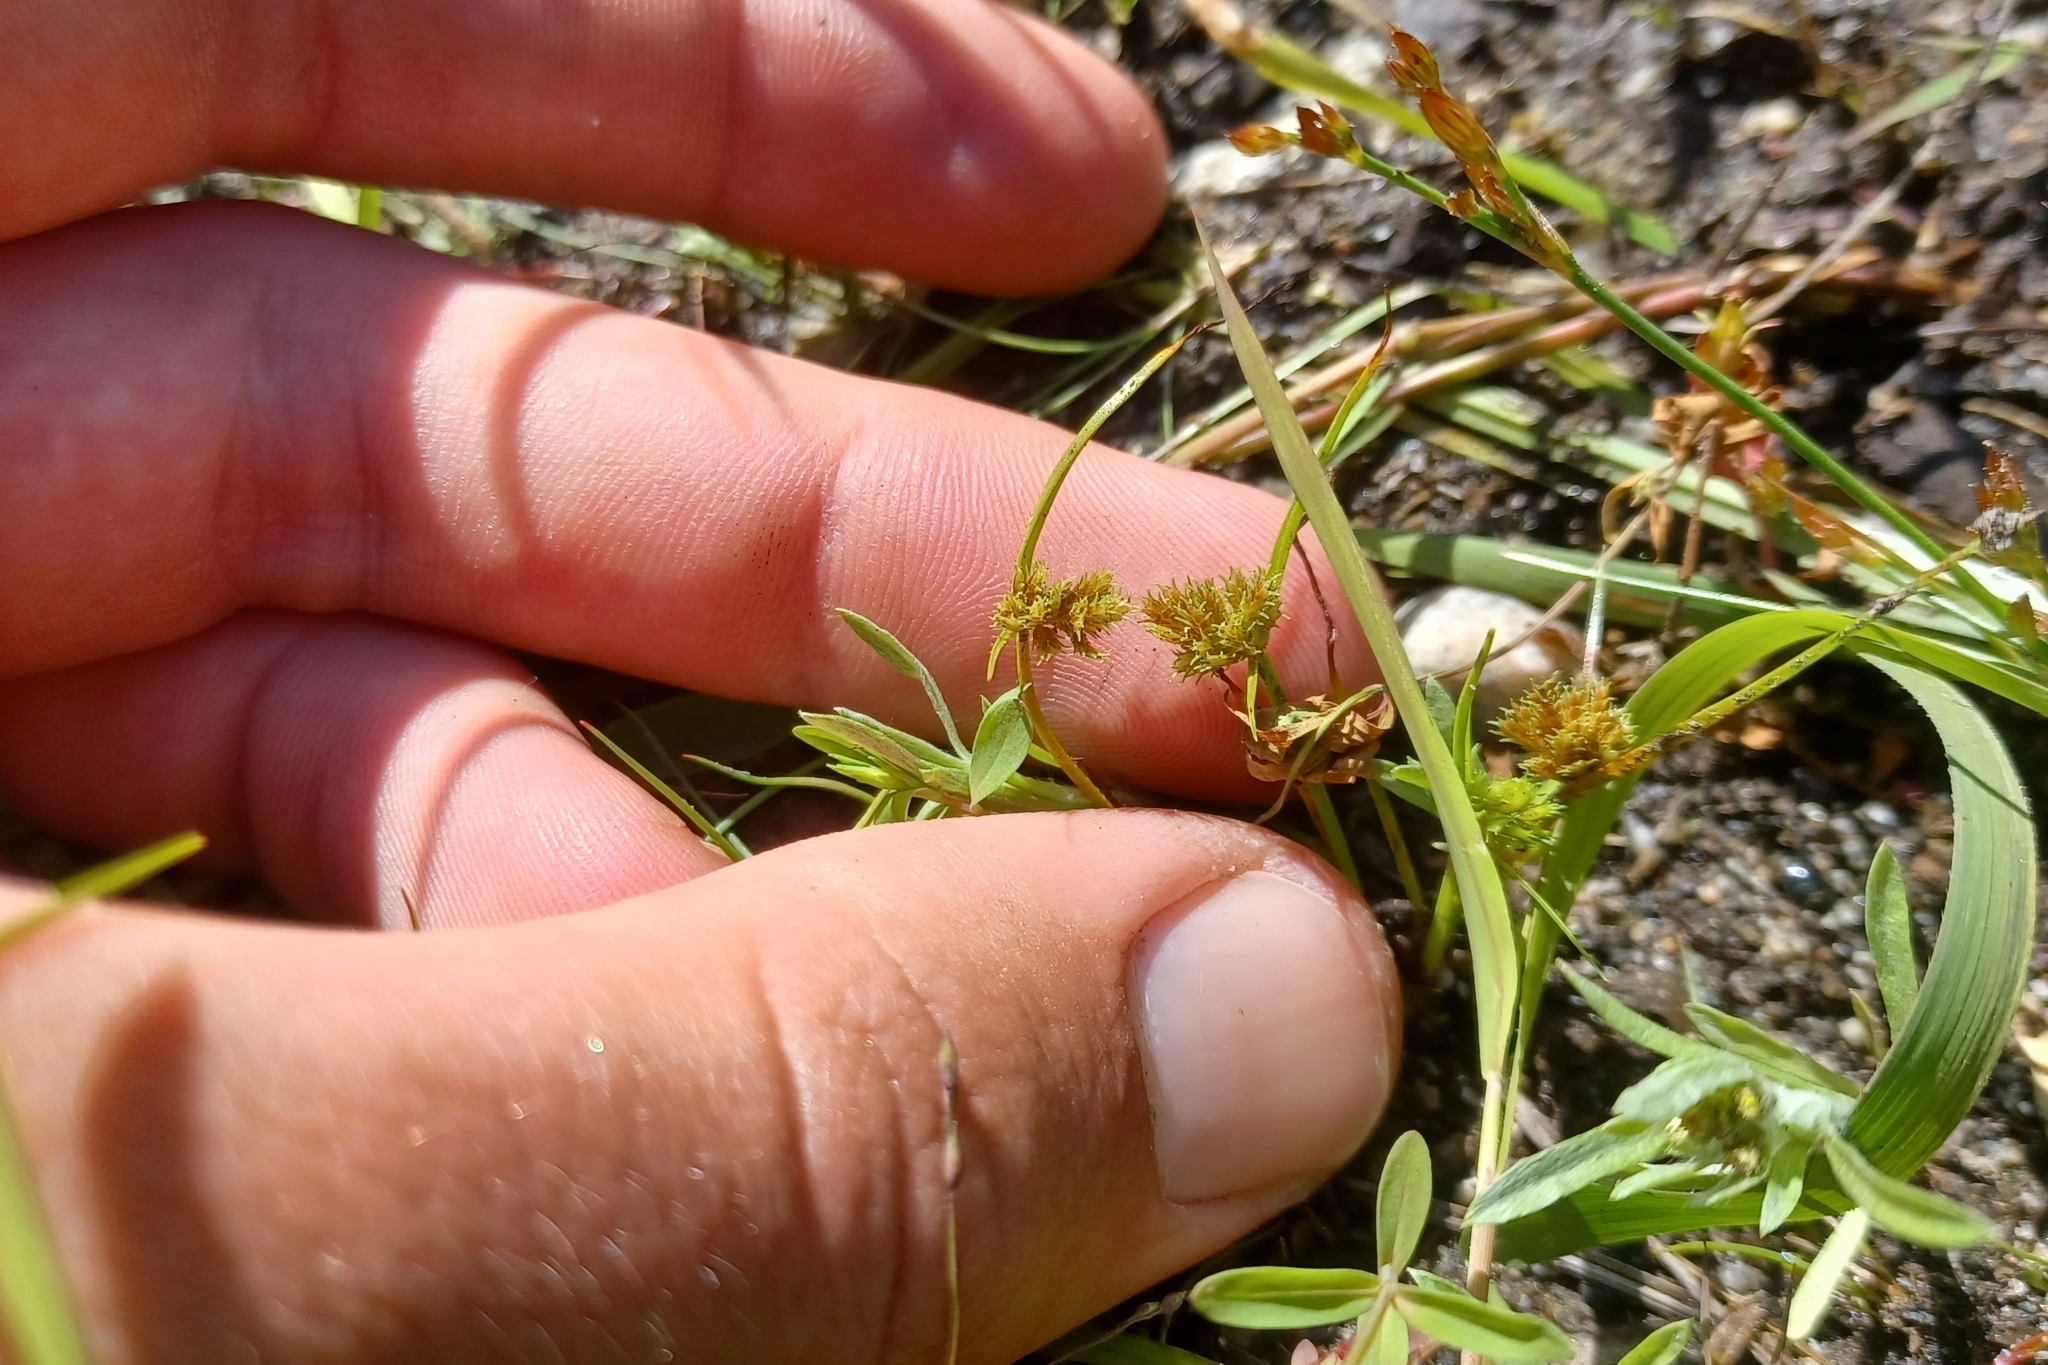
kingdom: Plantae
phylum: Tracheophyta
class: Liliopsida
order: Poales
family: Cyperaceae
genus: Cyperus
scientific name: Cyperus squarrosus
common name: Awned cyperus
